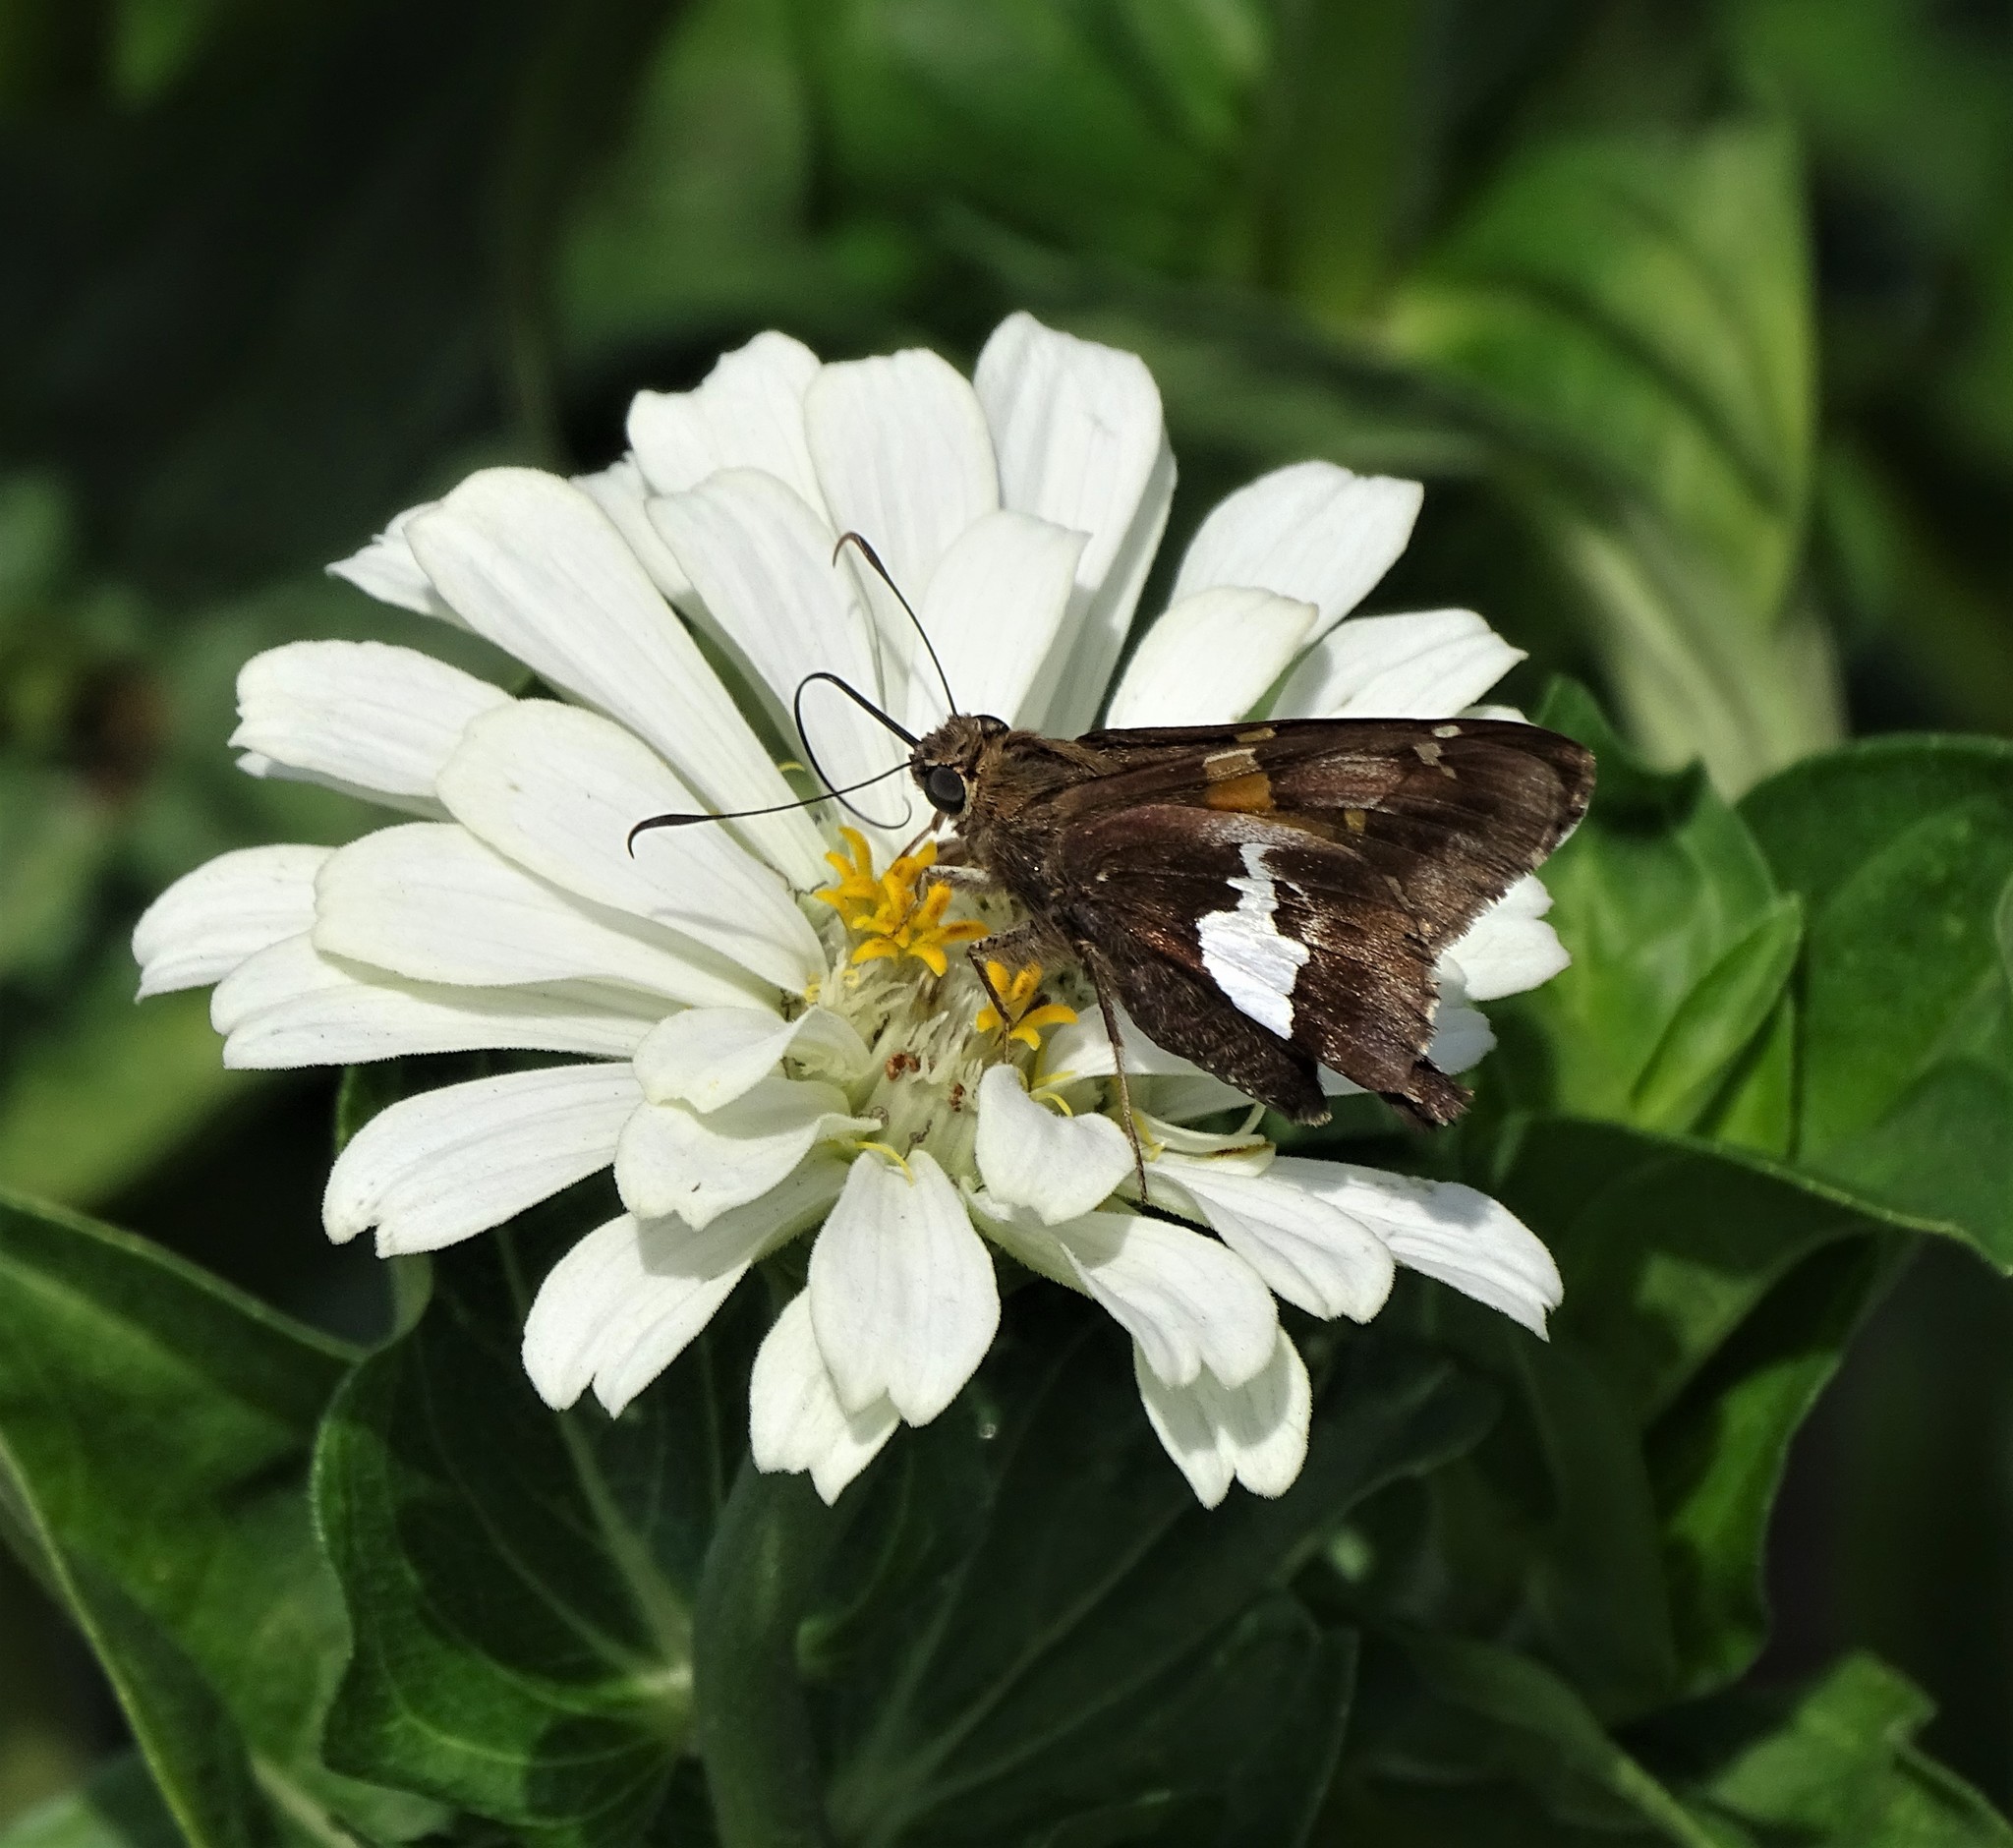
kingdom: Animalia
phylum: Arthropoda
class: Insecta
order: Lepidoptera
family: Hesperiidae
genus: Epargyreus
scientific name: Epargyreus clarus
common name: Silver-spotted skipper
